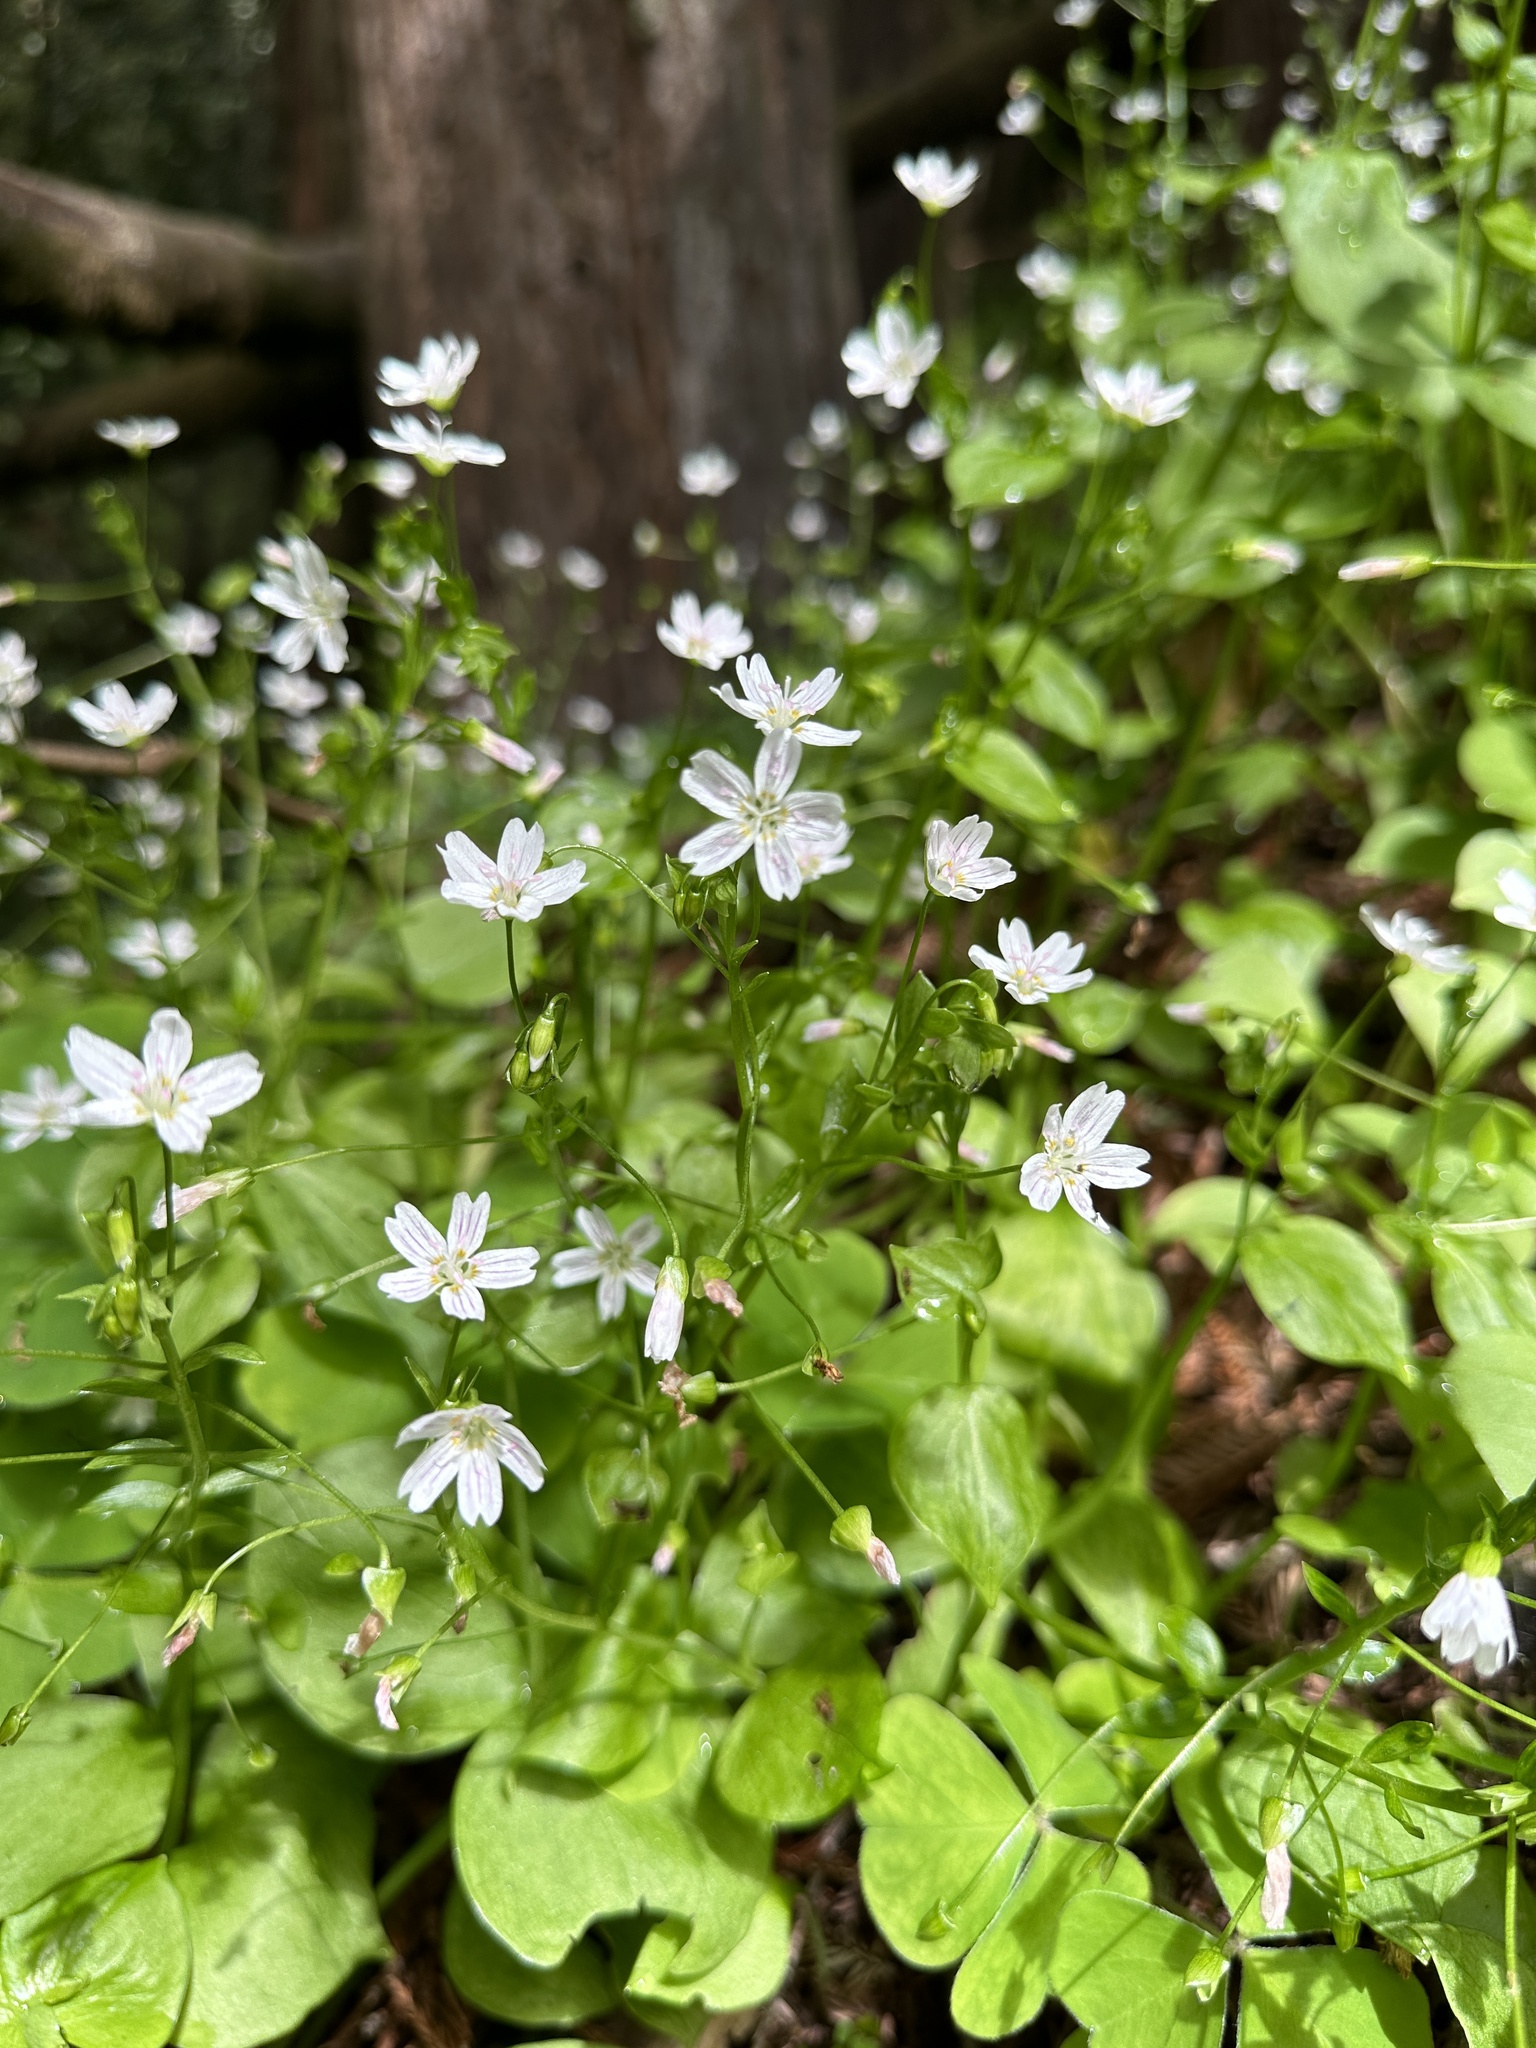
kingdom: Plantae
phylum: Tracheophyta
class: Magnoliopsida
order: Caryophyllales
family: Montiaceae
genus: Claytonia
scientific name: Claytonia sibirica
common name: Pink purslane
